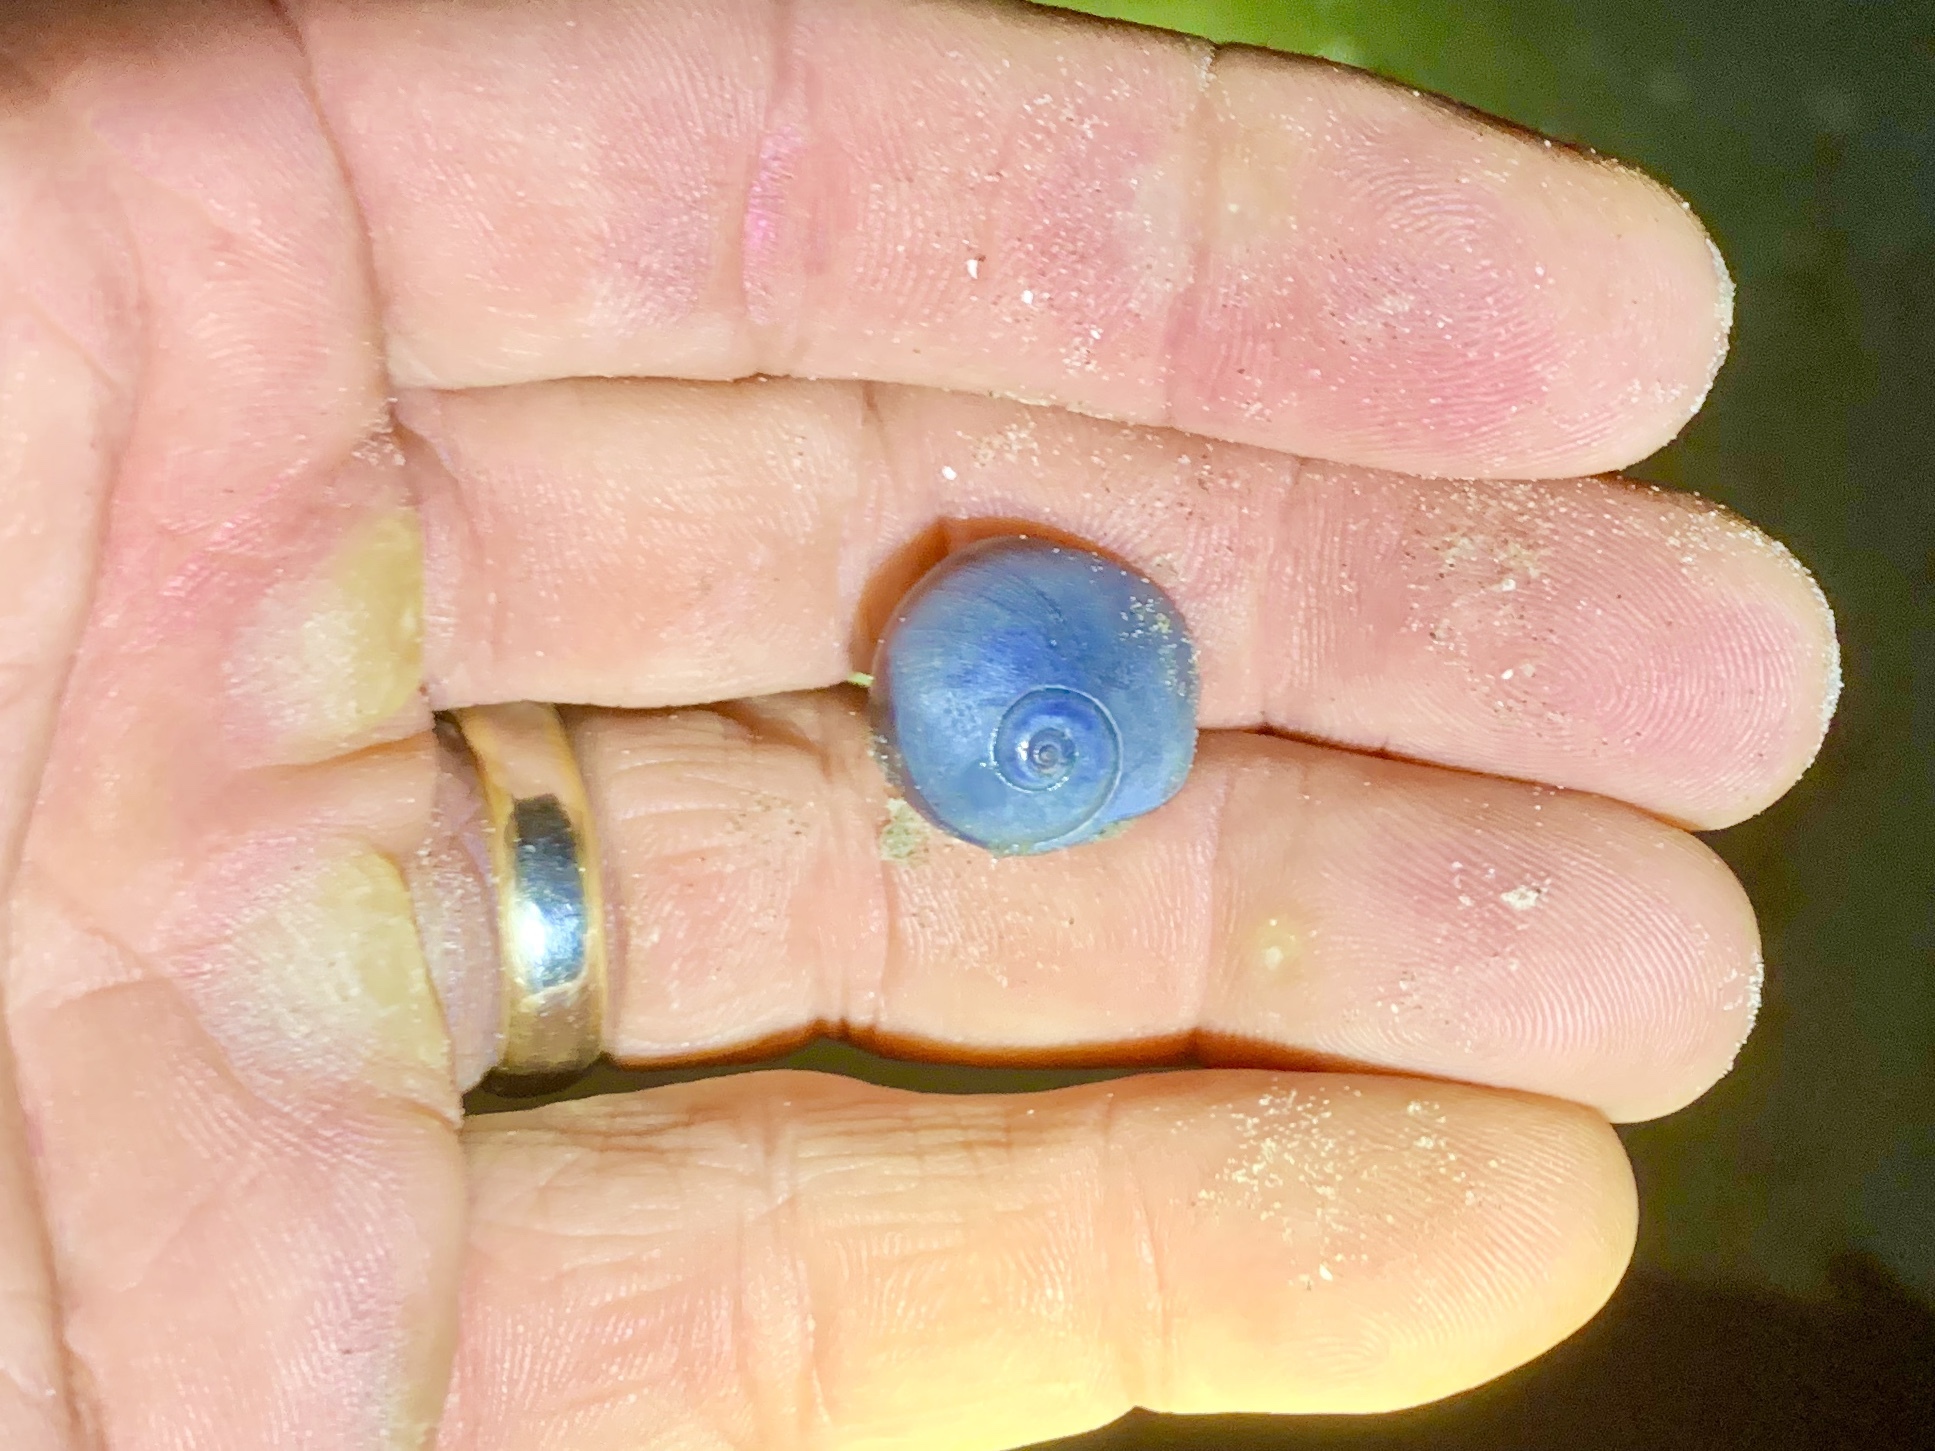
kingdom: Animalia
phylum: Mollusca
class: Gastropoda
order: Littorinimorpha
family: Naticidae
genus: Neverita
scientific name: Neverita duplicata
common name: Lobed moonsnail
